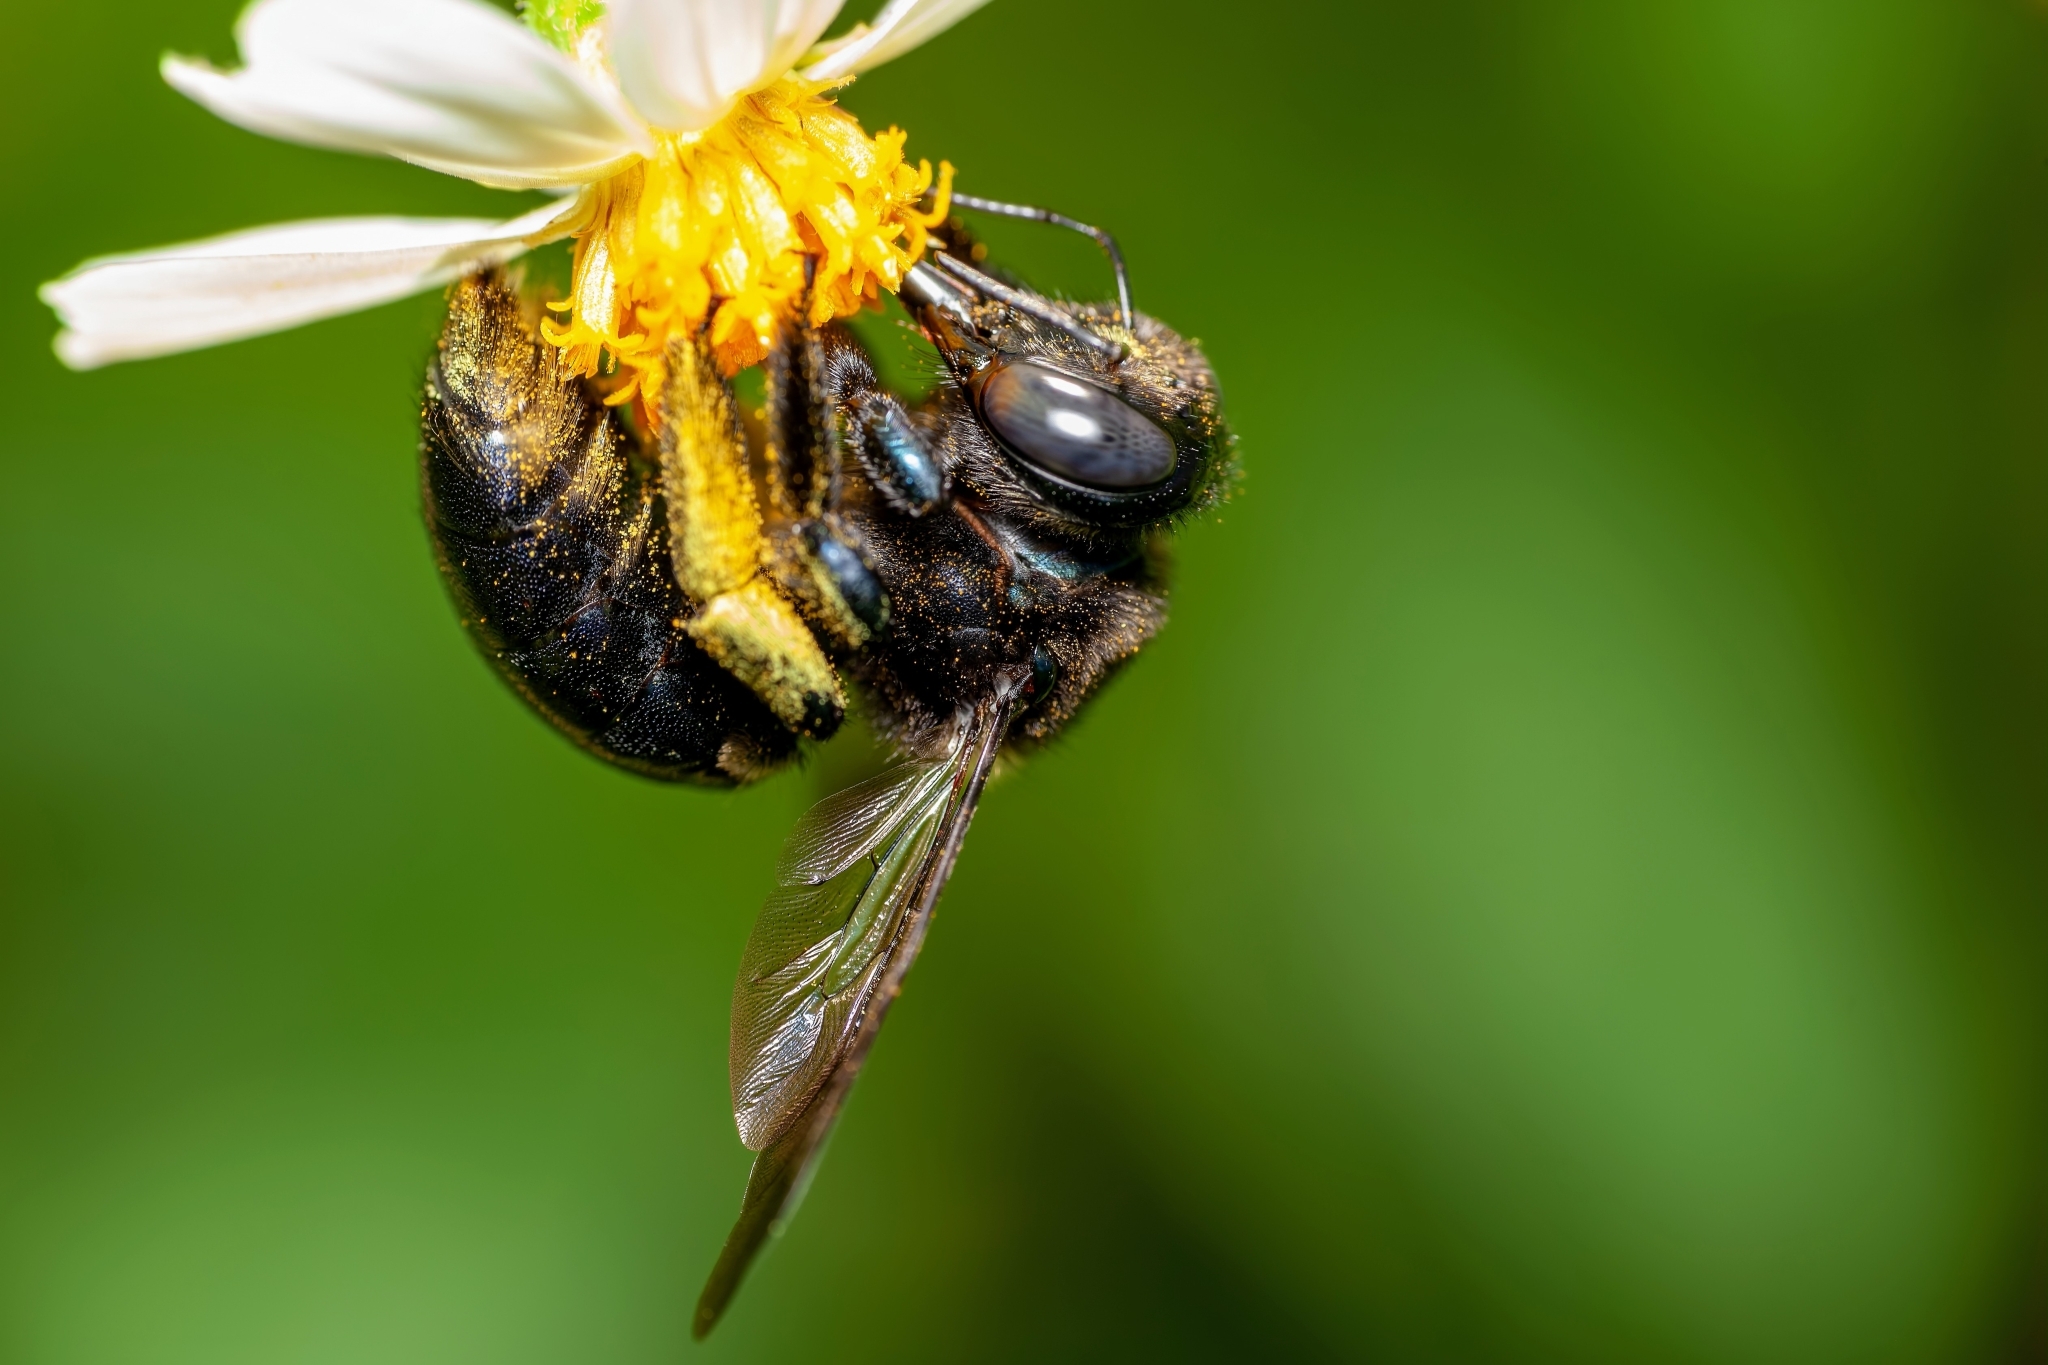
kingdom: Animalia
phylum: Arthropoda
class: Insecta
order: Hymenoptera
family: Apidae
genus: Xylocopa
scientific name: Xylocopa micans
